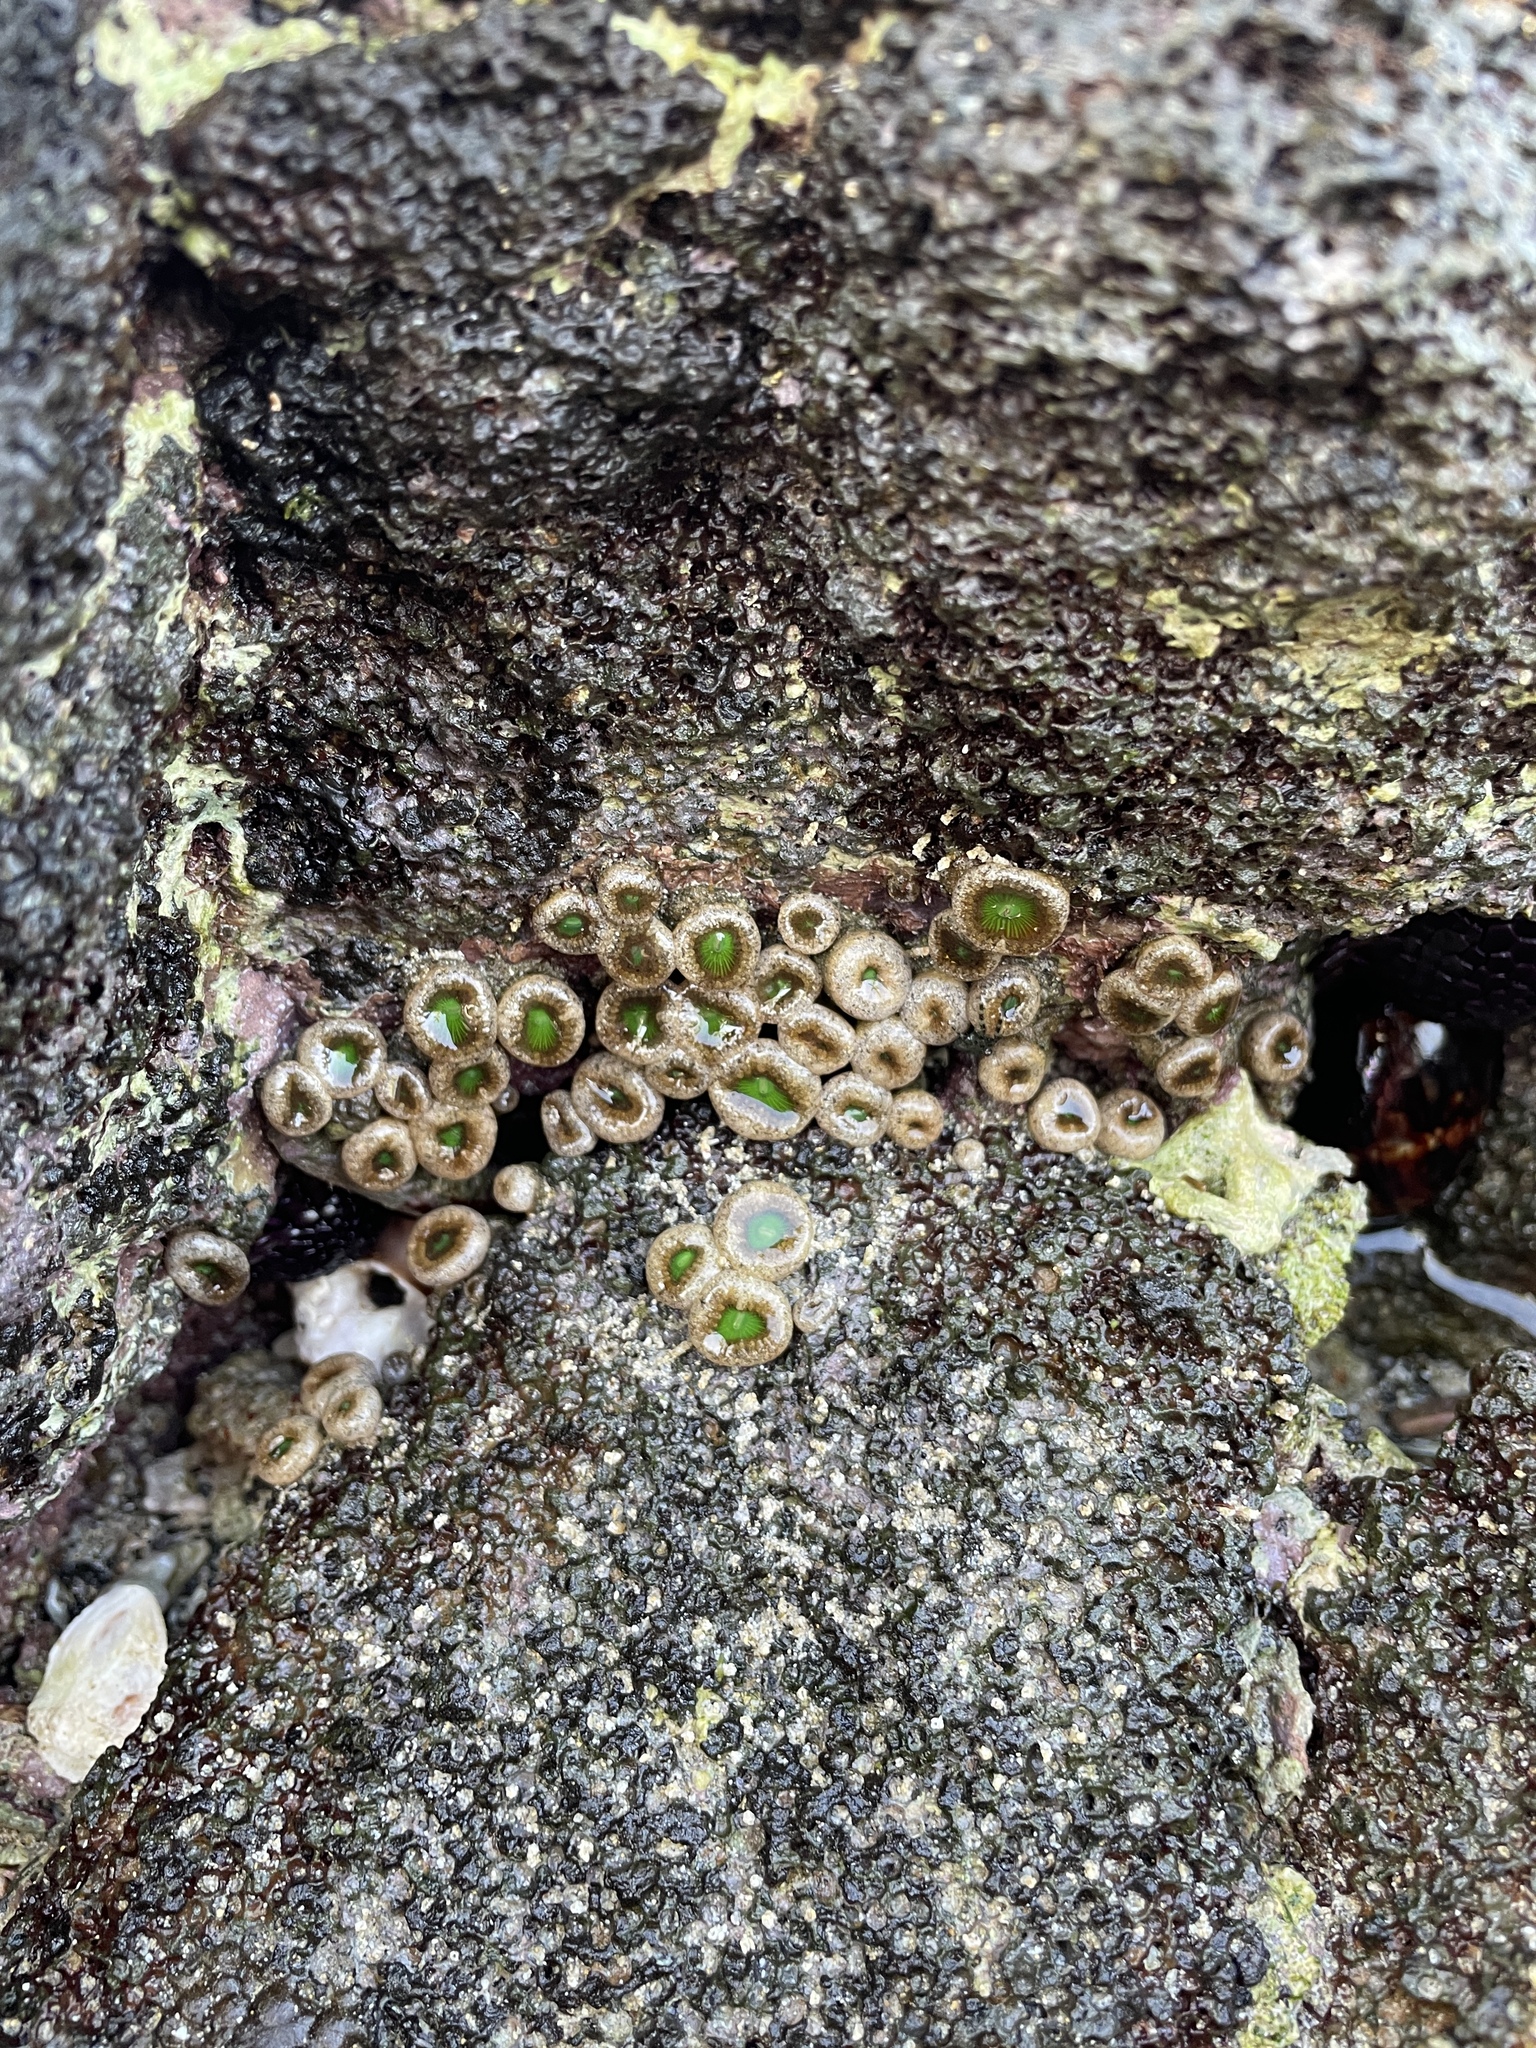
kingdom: Animalia
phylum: Cnidaria
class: Anthozoa
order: Zoantharia
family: Sphenopidae
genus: Palythoa
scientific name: Palythoa mutuki
